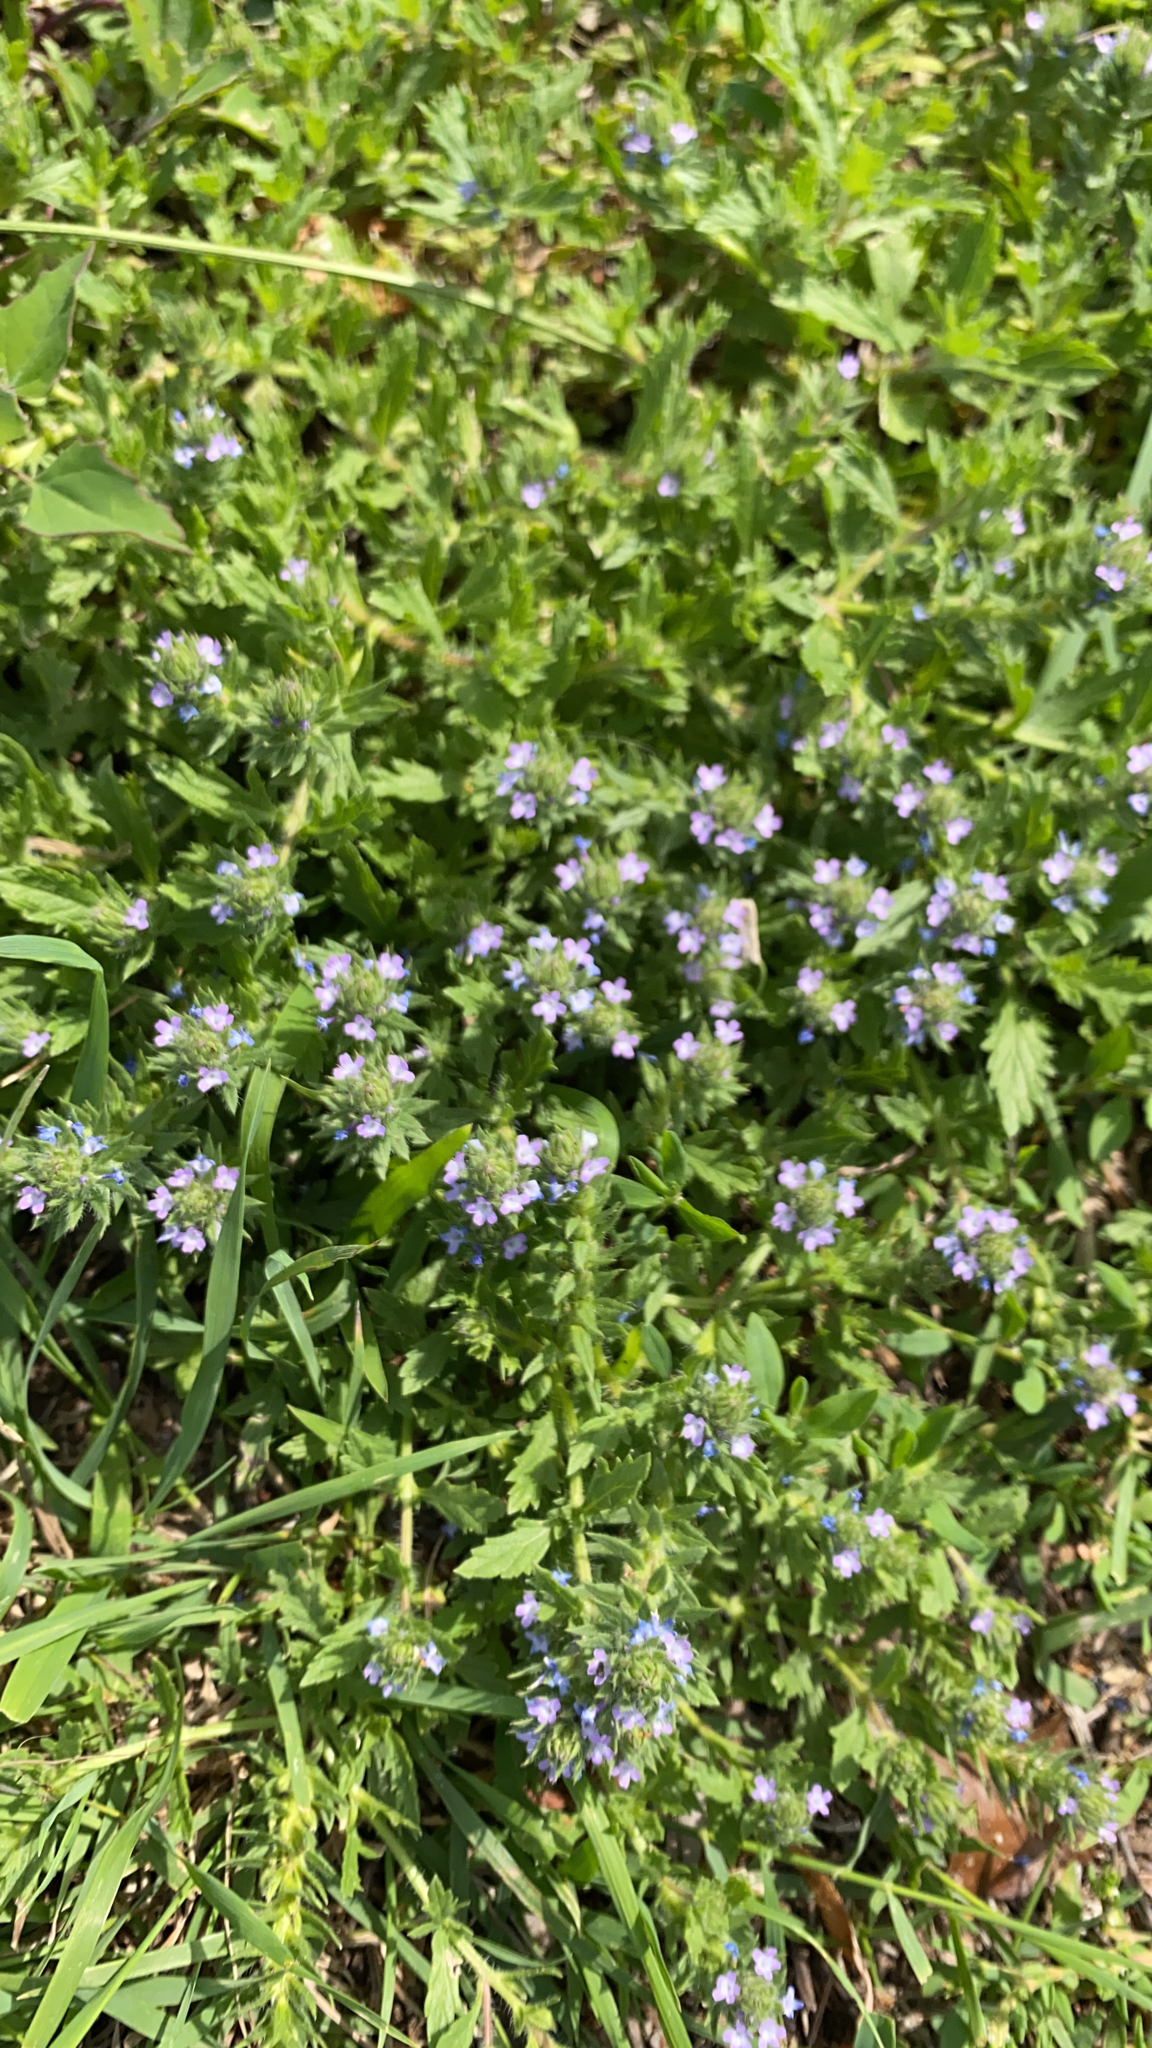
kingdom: Plantae
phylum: Tracheophyta
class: Magnoliopsida
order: Lamiales
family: Verbenaceae
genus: Verbena
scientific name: Verbena bracteata
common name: Bracted vervain
